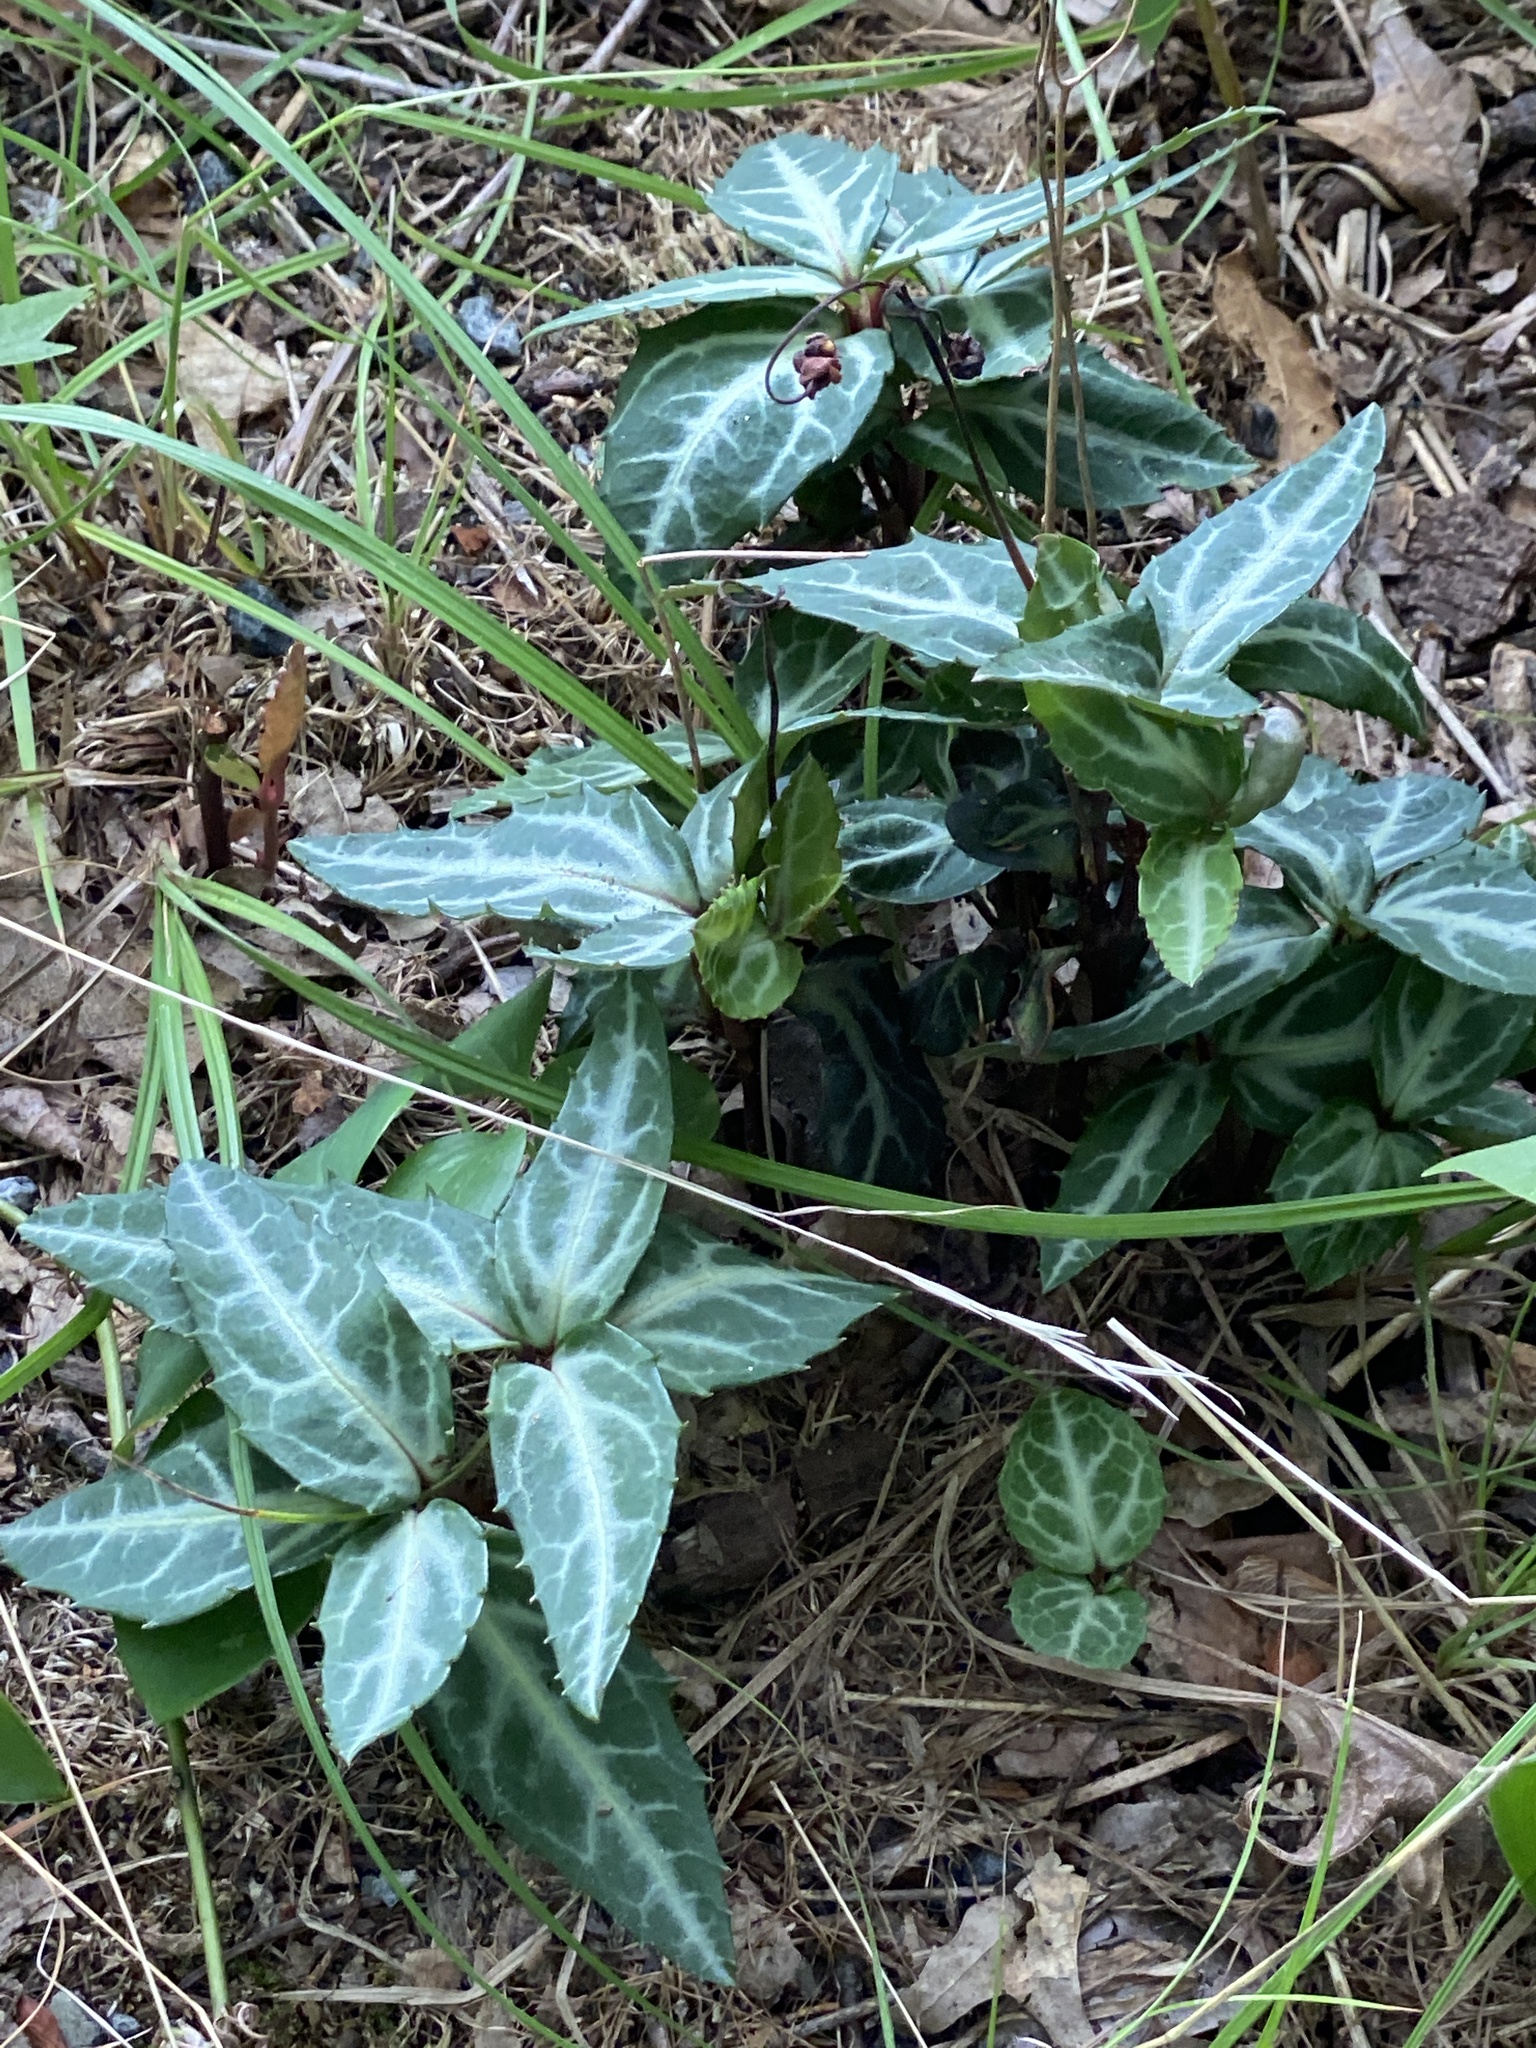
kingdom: Plantae
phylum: Tracheophyta
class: Magnoliopsida
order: Ericales
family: Ericaceae
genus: Chimaphila
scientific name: Chimaphila maculata
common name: Spotted pipsissewa
